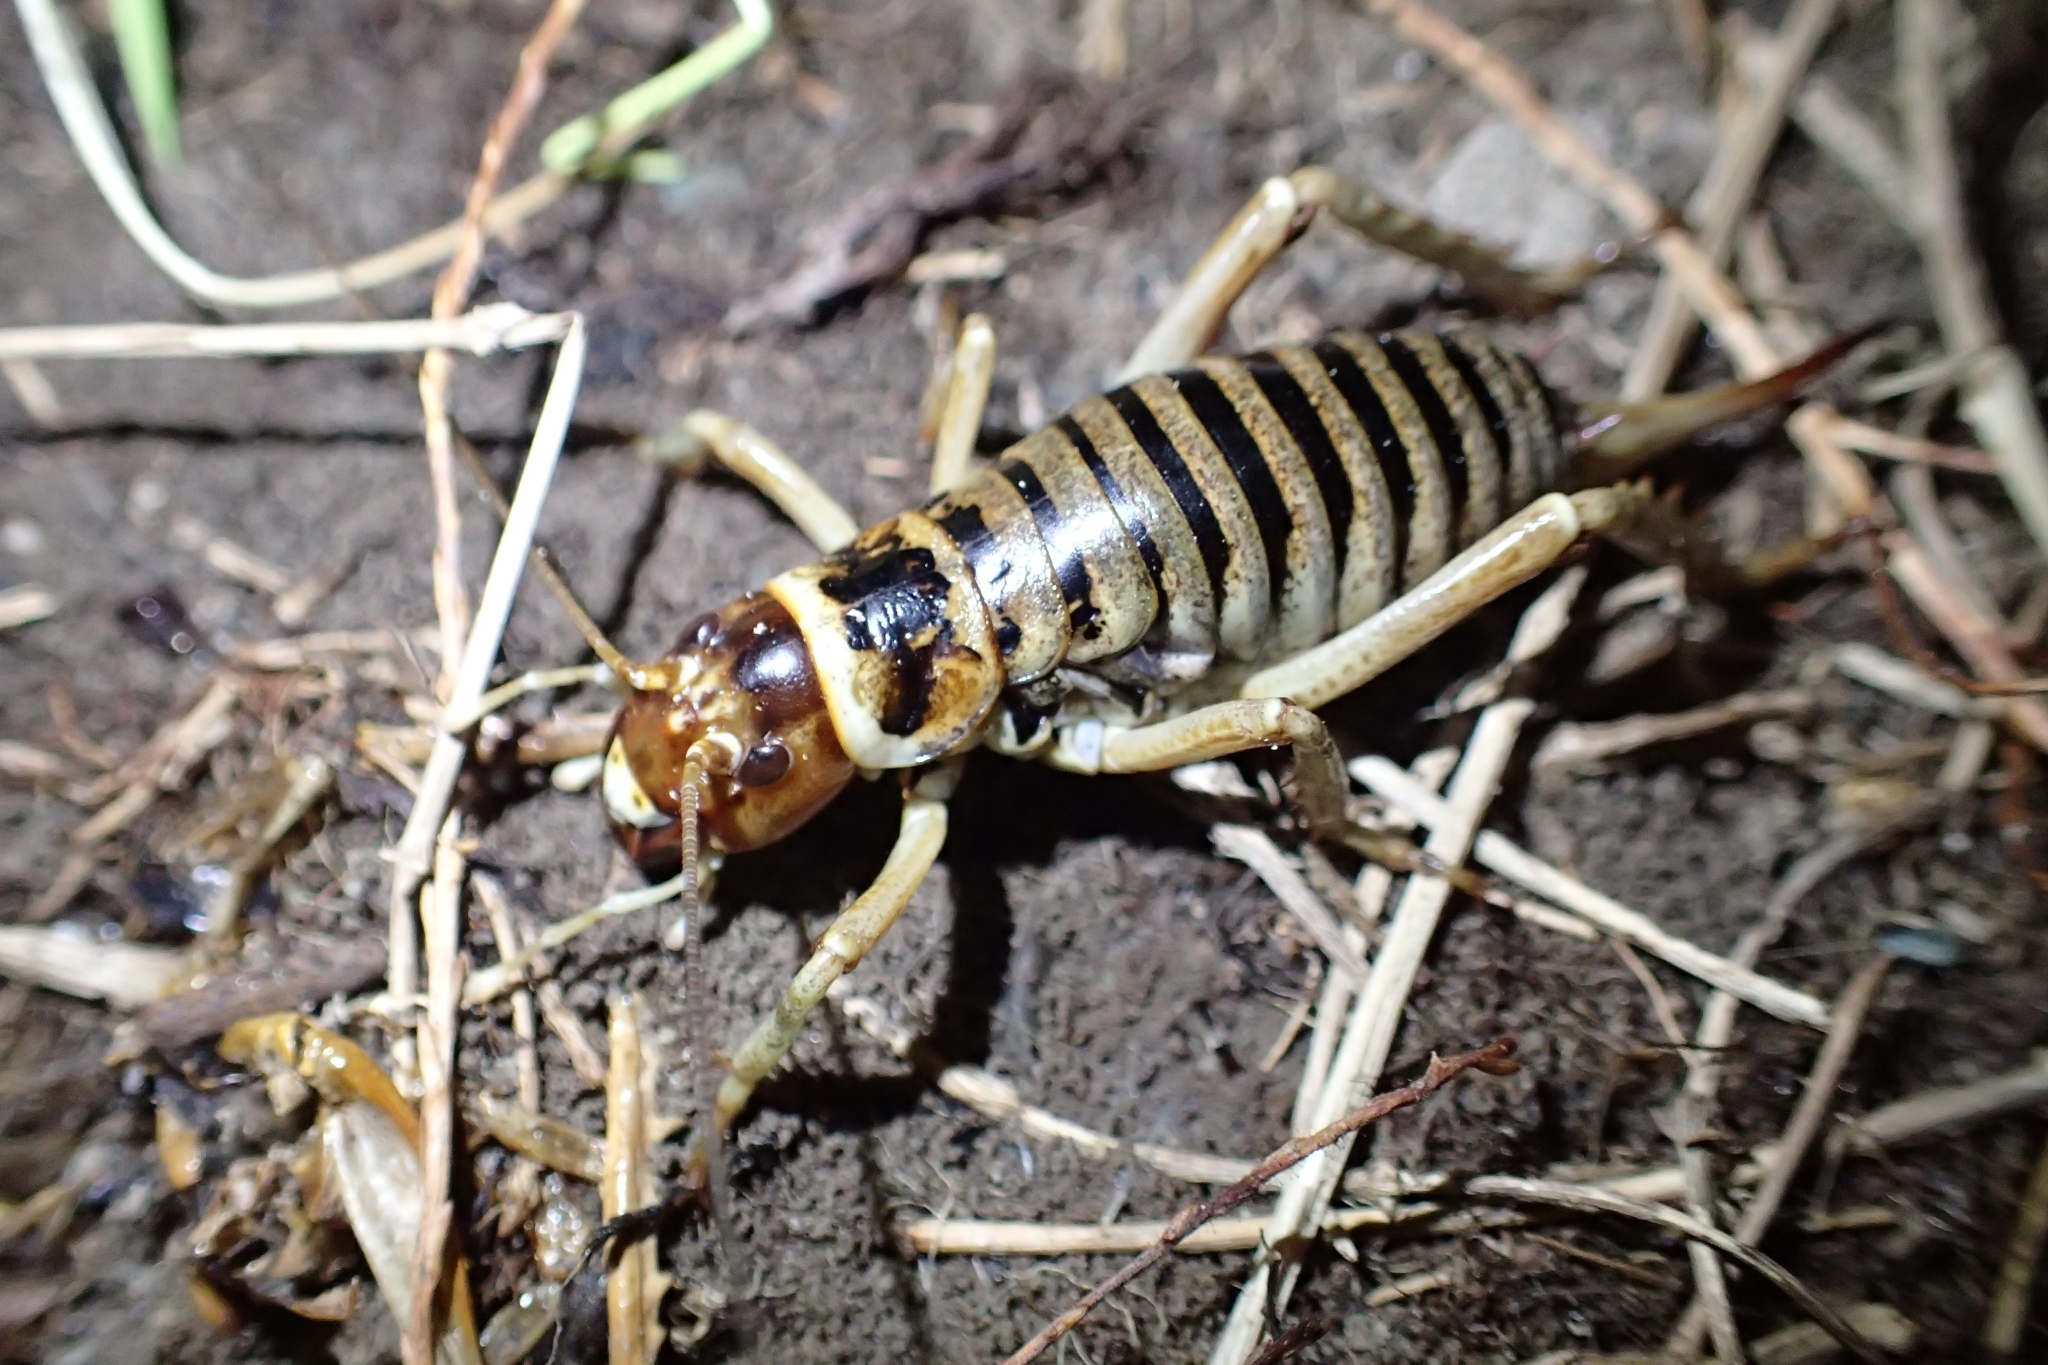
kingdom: Animalia
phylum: Arthropoda
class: Insecta
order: Orthoptera
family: Anostostomatidae
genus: Hemideina
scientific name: Hemideina maori
